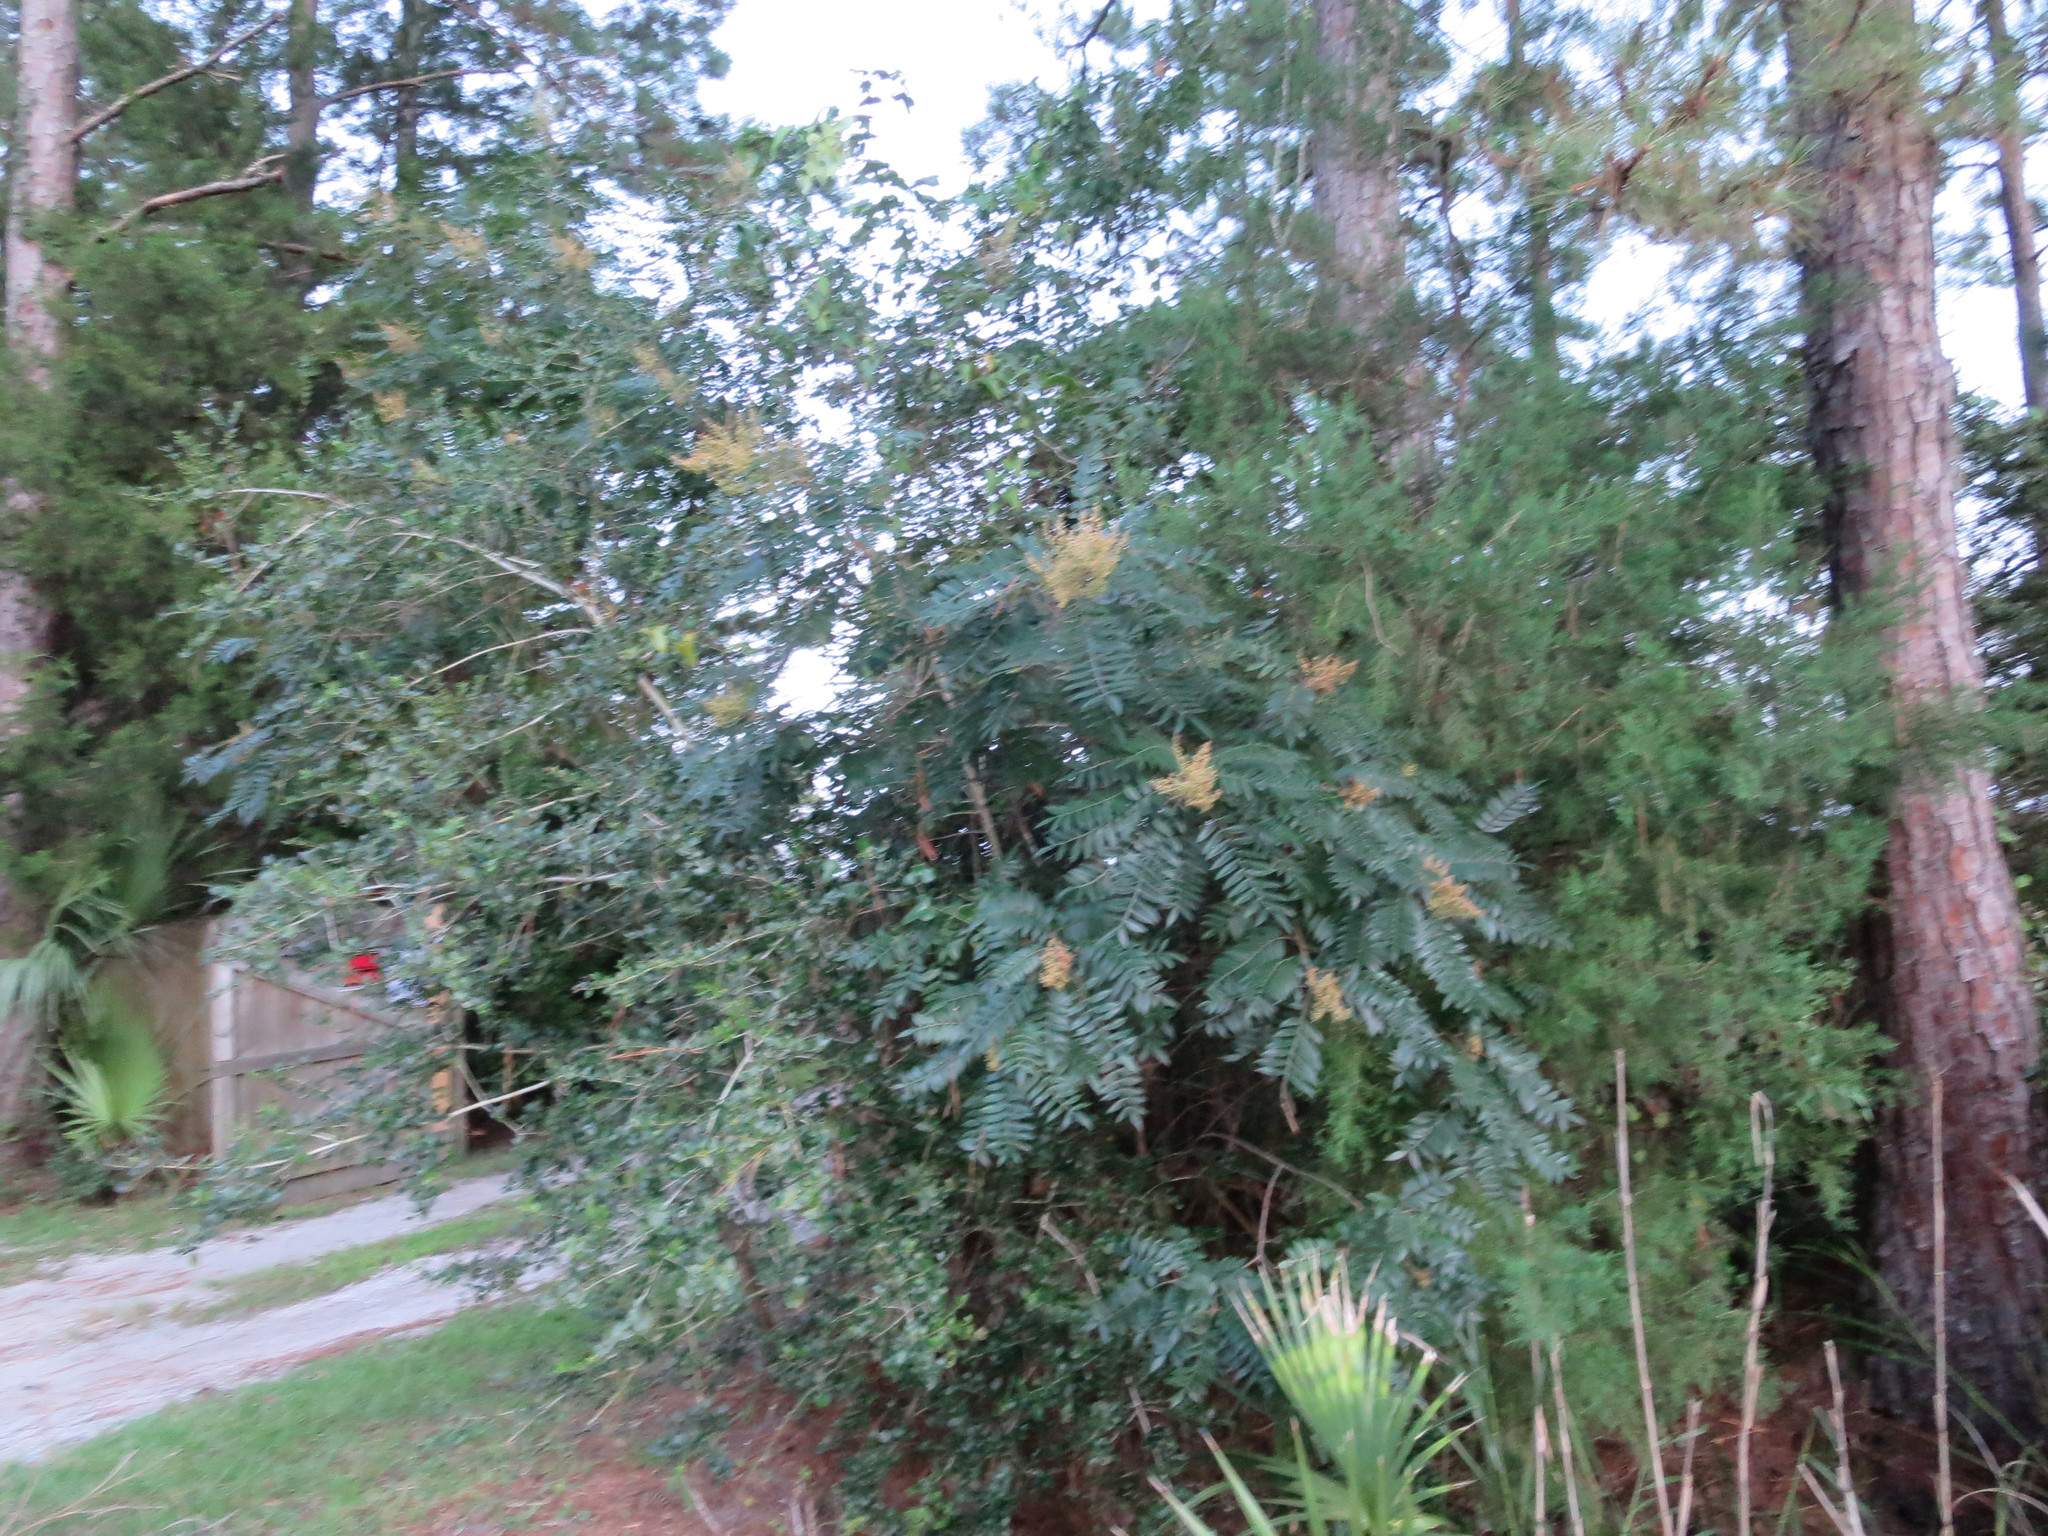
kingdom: Plantae
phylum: Tracheophyta
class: Magnoliopsida
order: Sapindales
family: Anacardiaceae
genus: Rhus
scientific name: Rhus copallina
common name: Shining sumac
